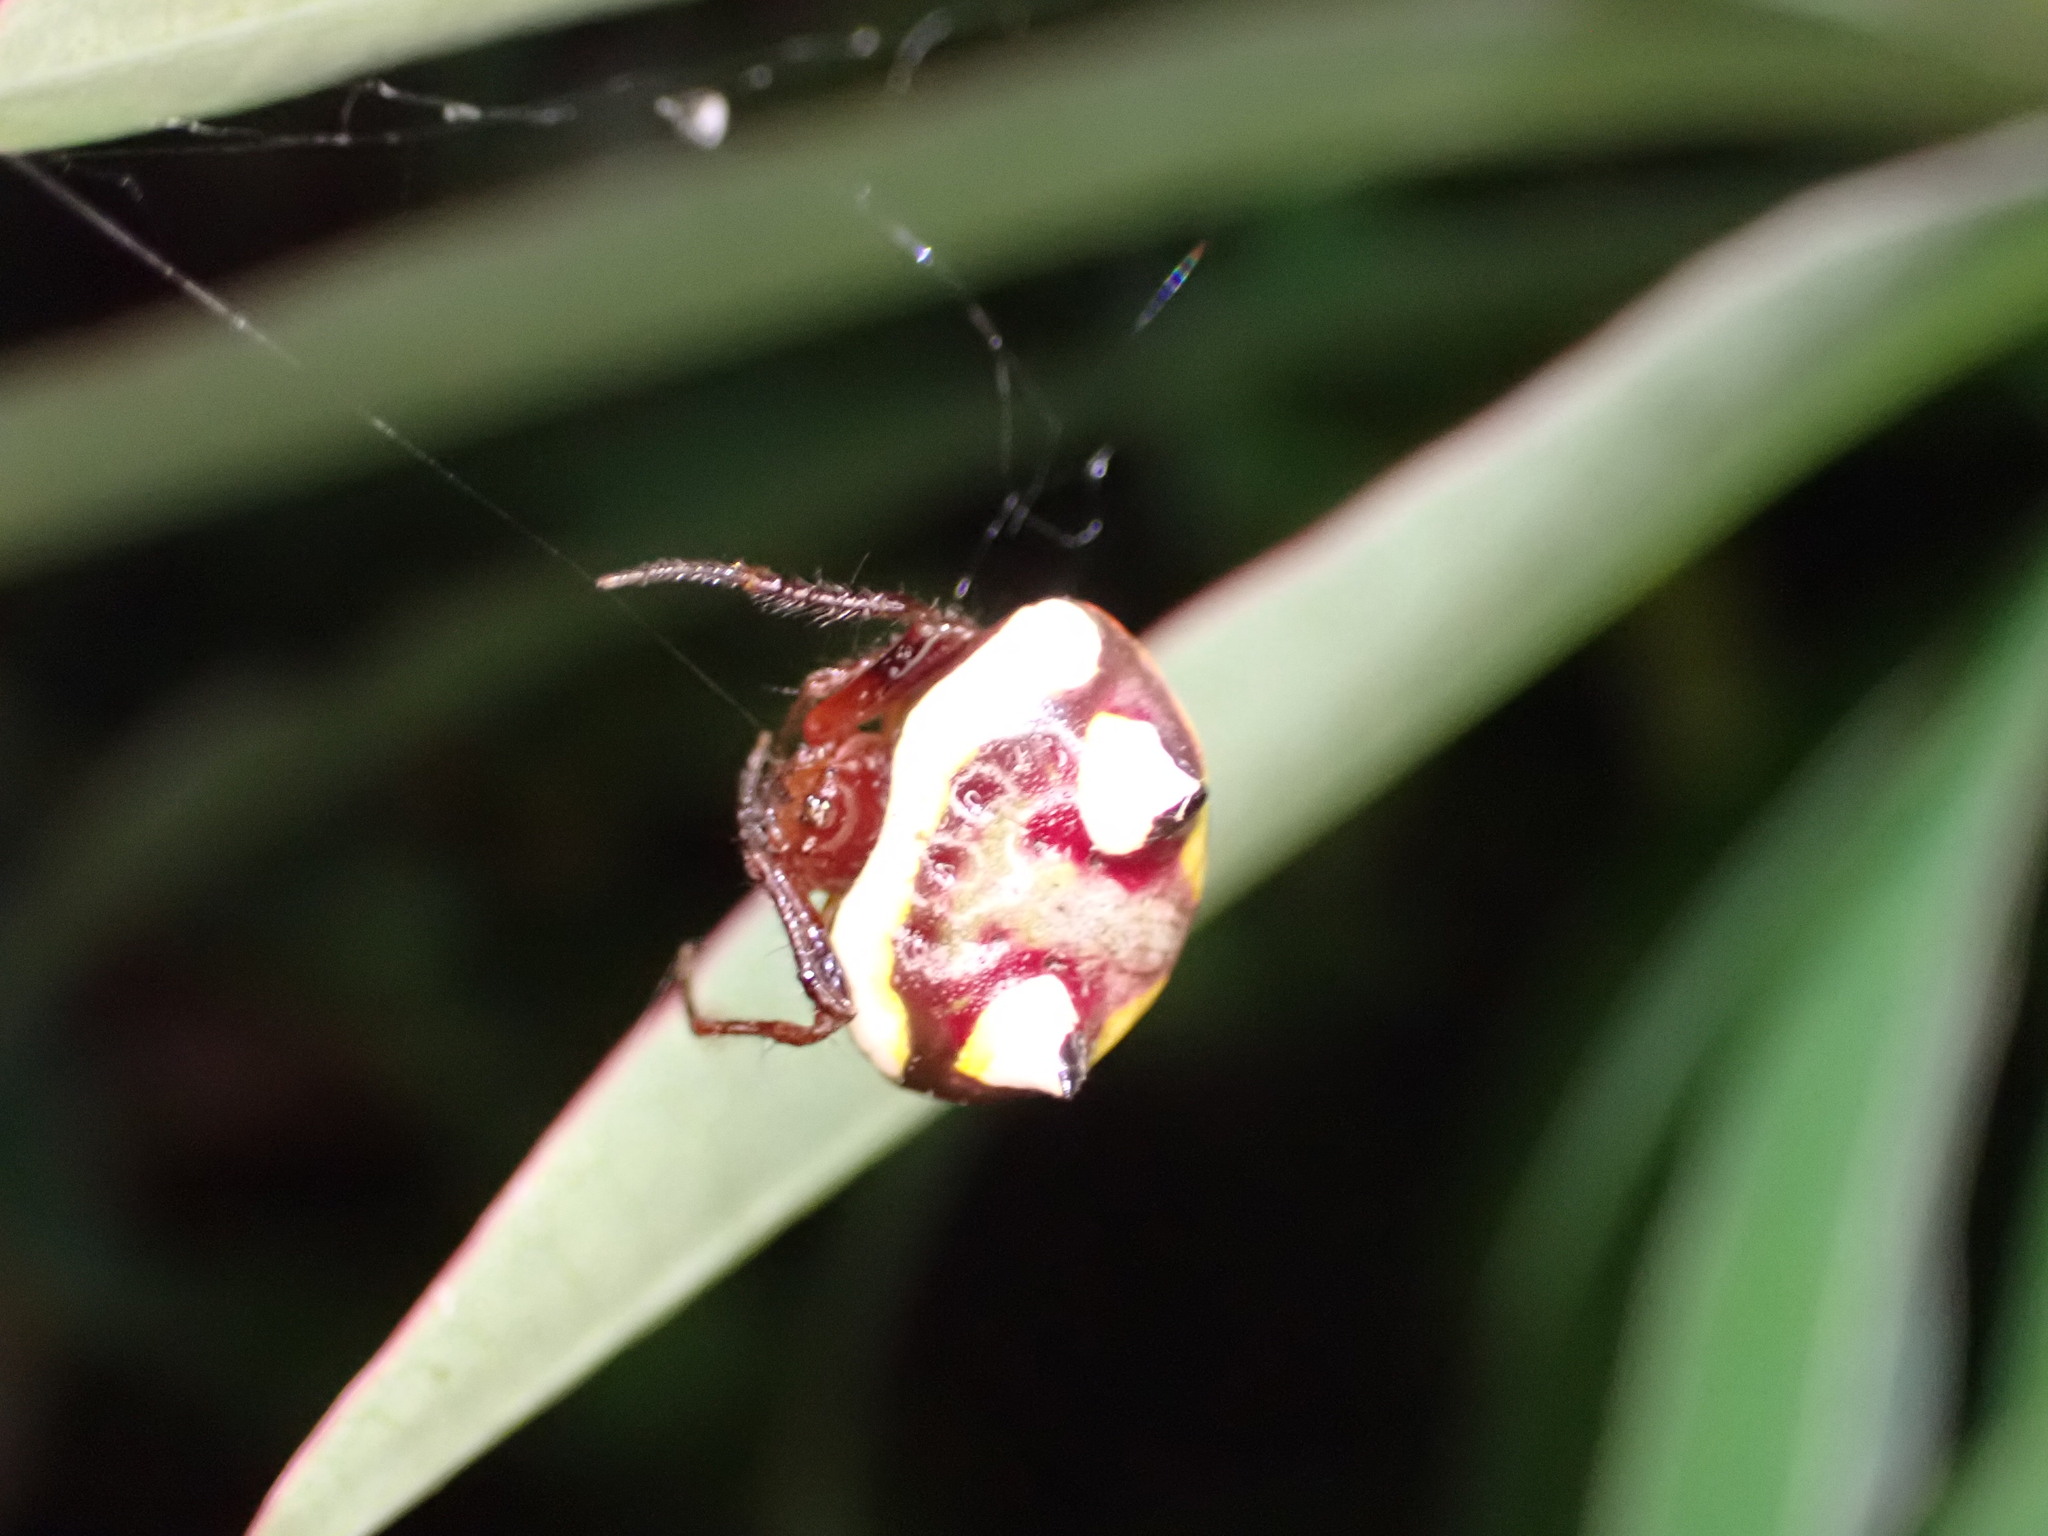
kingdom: Animalia
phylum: Arthropoda
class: Arachnida
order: Araneae
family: Araneidae
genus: Poecilopachys
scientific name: Poecilopachys australasia
